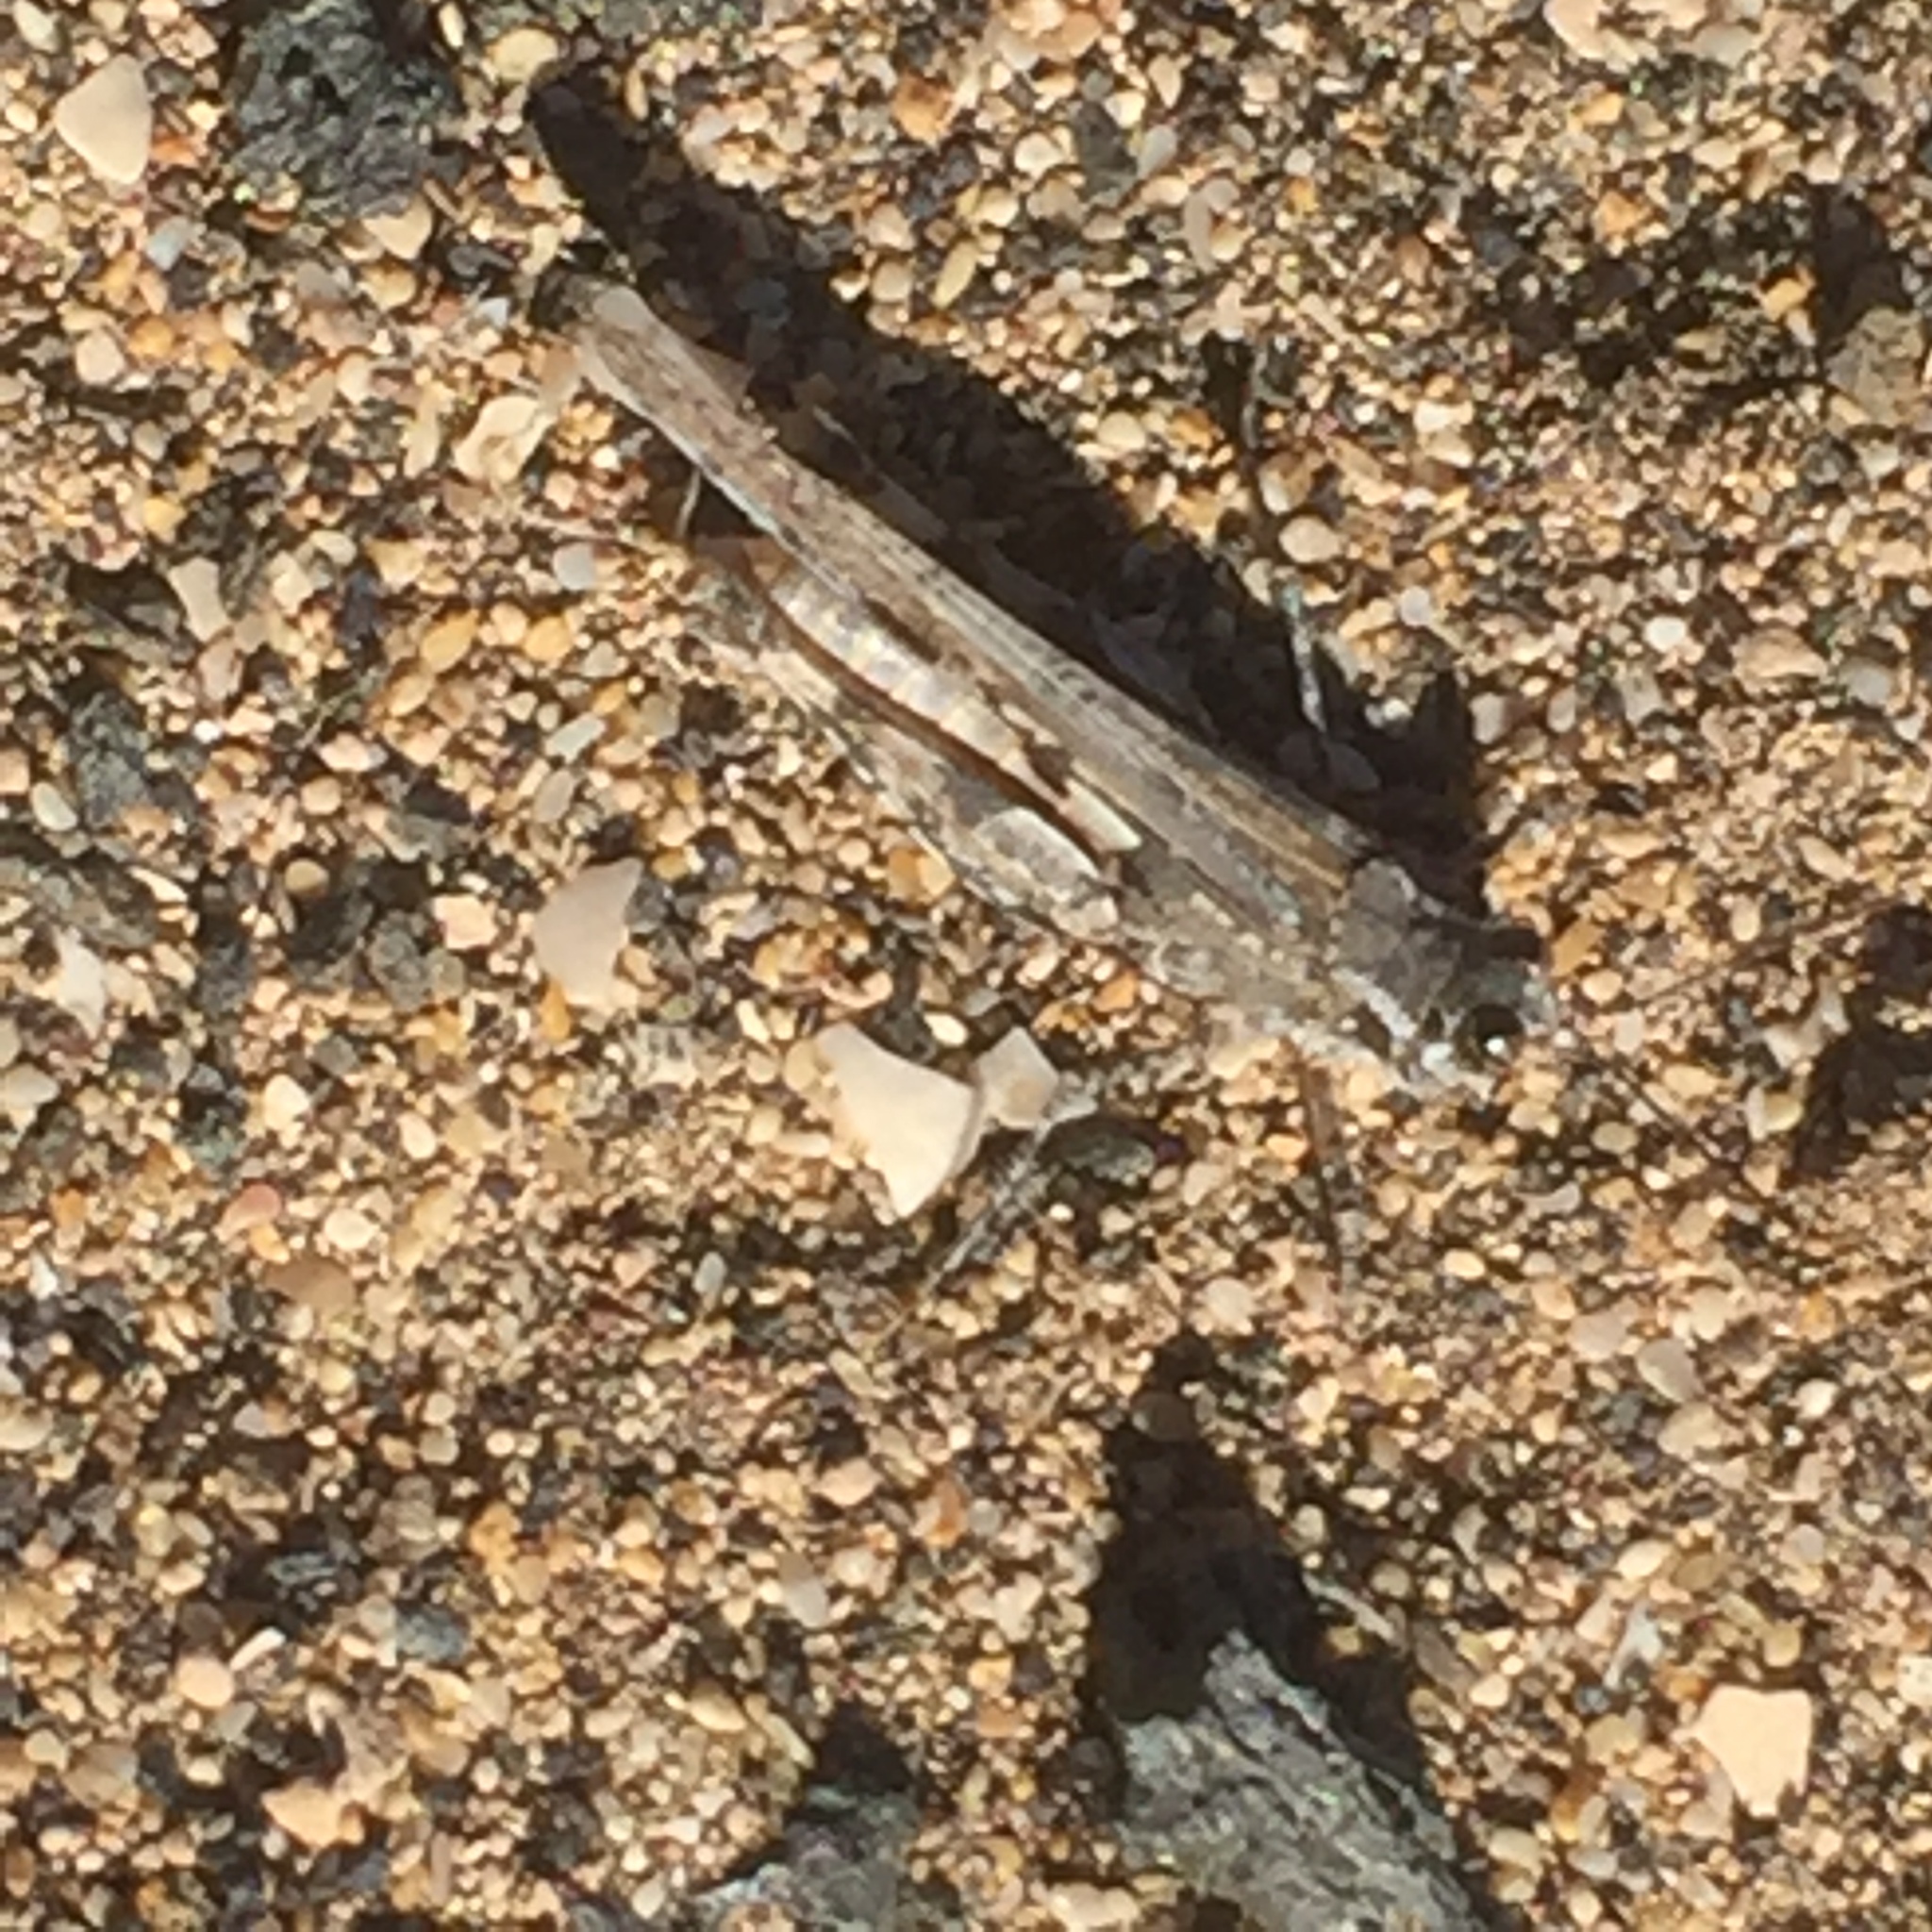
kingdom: Animalia
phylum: Arthropoda
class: Insecta
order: Orthoptera
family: Acrididae
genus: Acrotylus
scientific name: Acrotylus longipes
